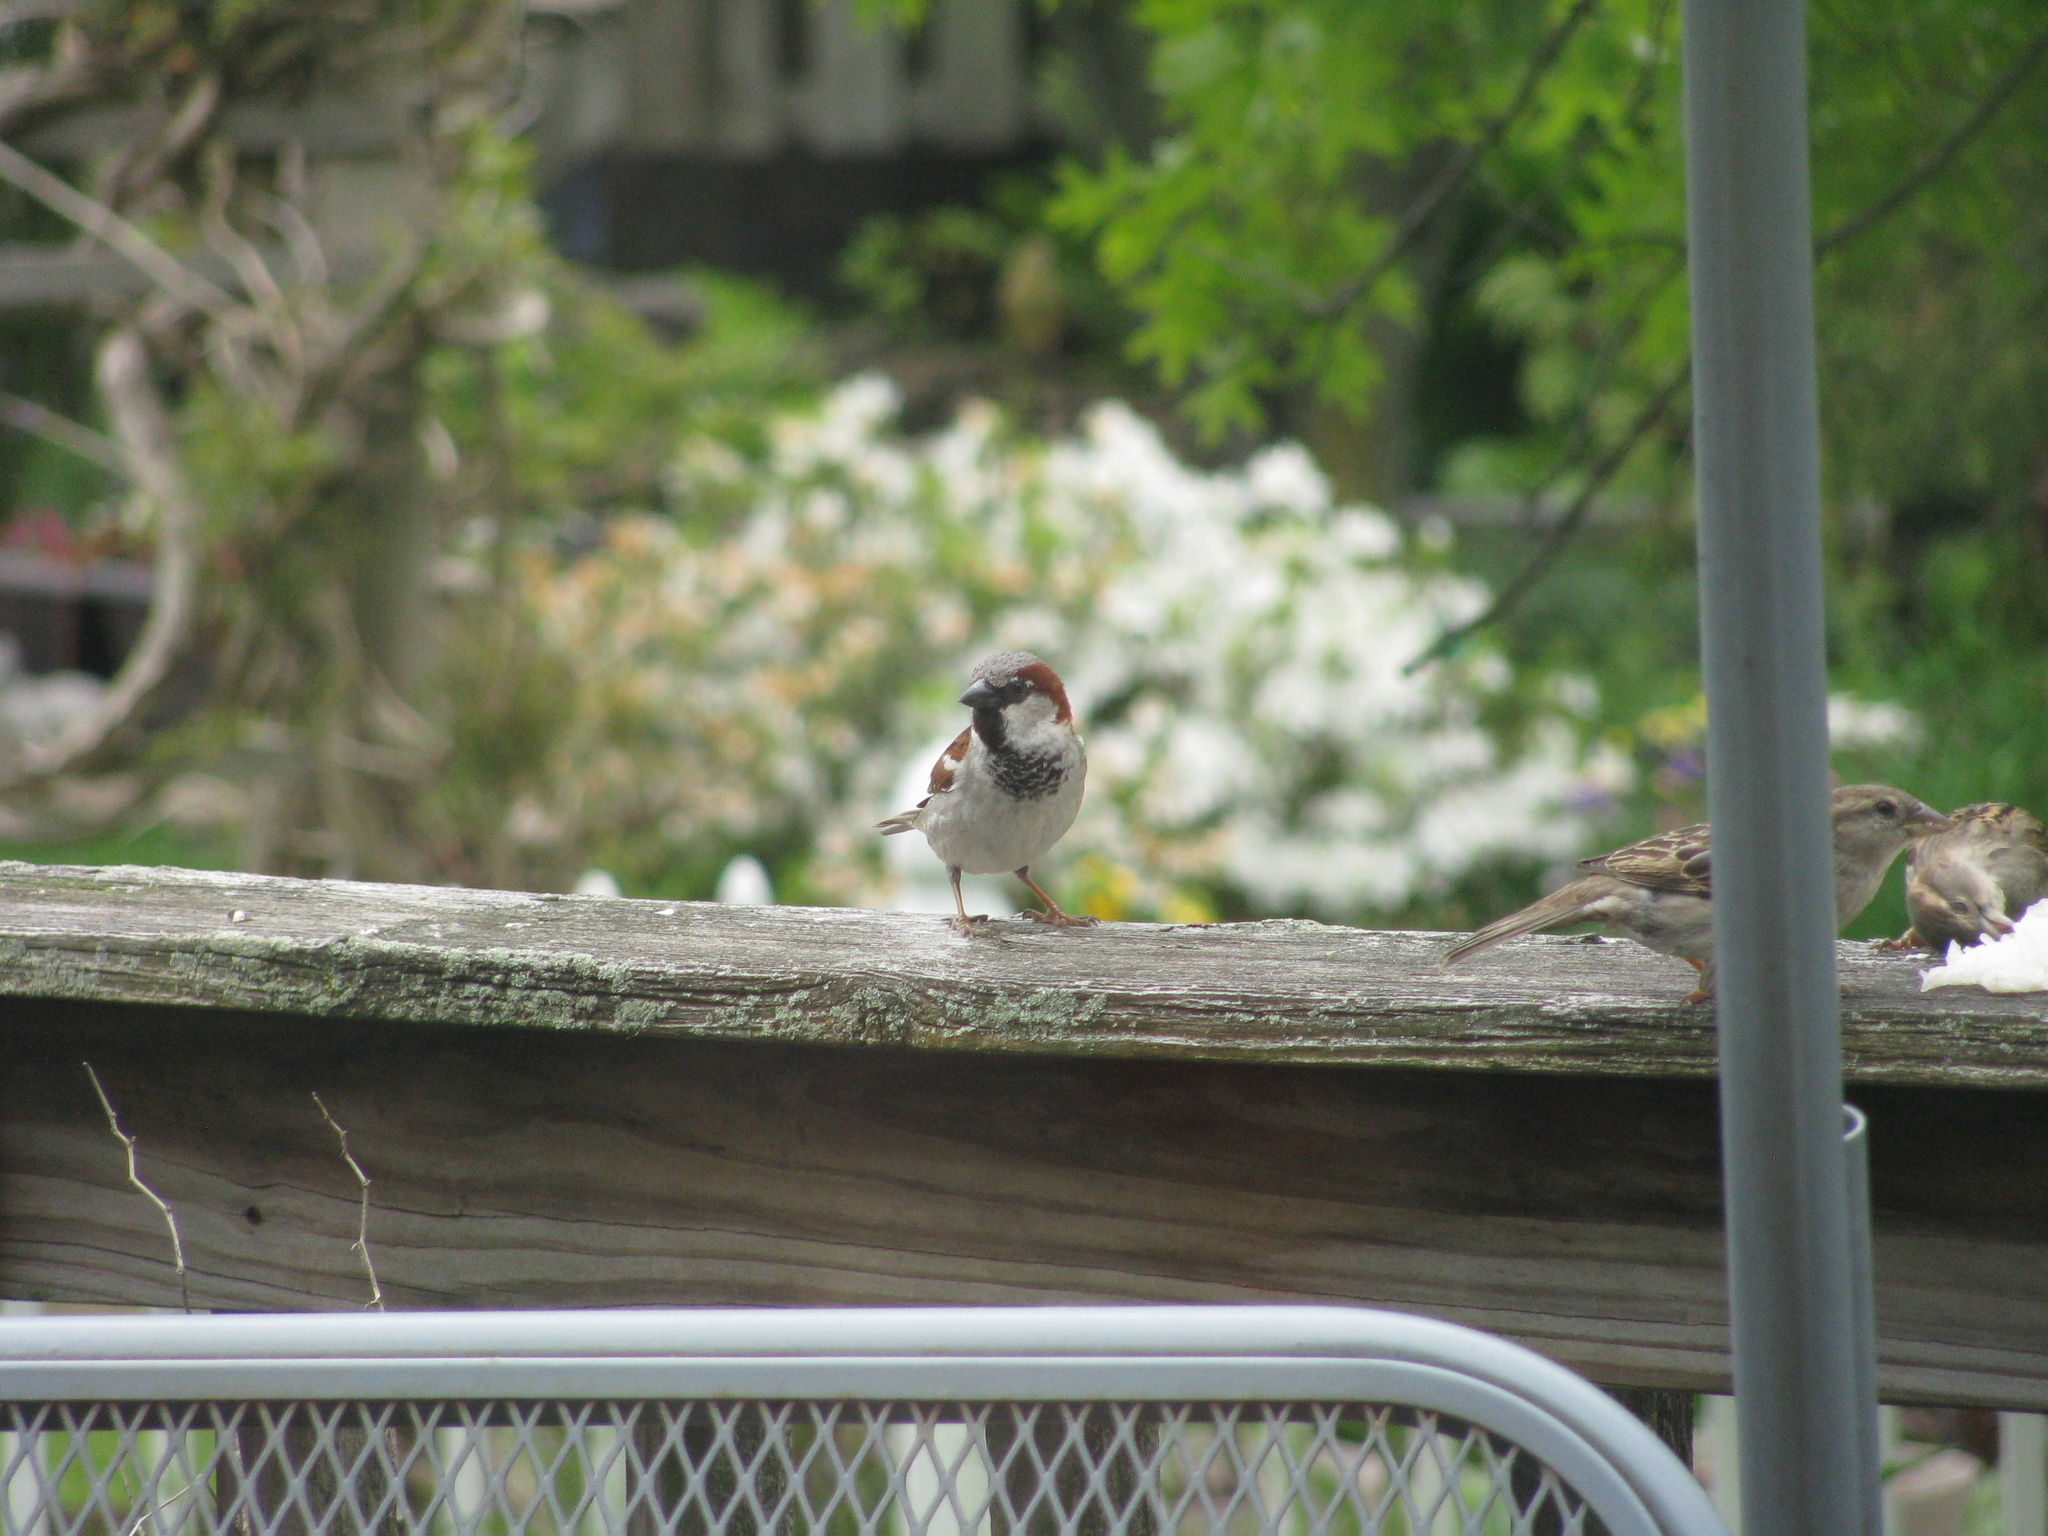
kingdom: Animalia
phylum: Chordata
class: Aves
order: Passeriformes
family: Passeridae
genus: Passer
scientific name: Passer domesticus
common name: House sparrow
